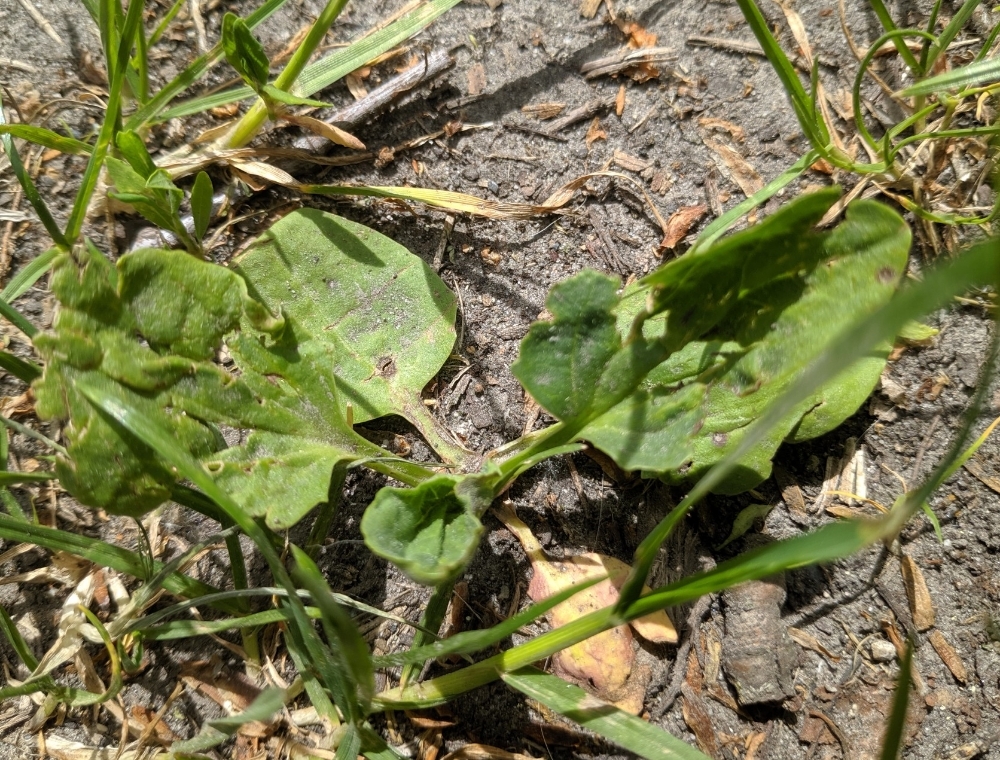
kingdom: Plantae
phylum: Tracheophyta
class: Magnoliopsida
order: Lamiales
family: Plantaginaceae
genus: Plantago
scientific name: Plantago major
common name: Common plantain
